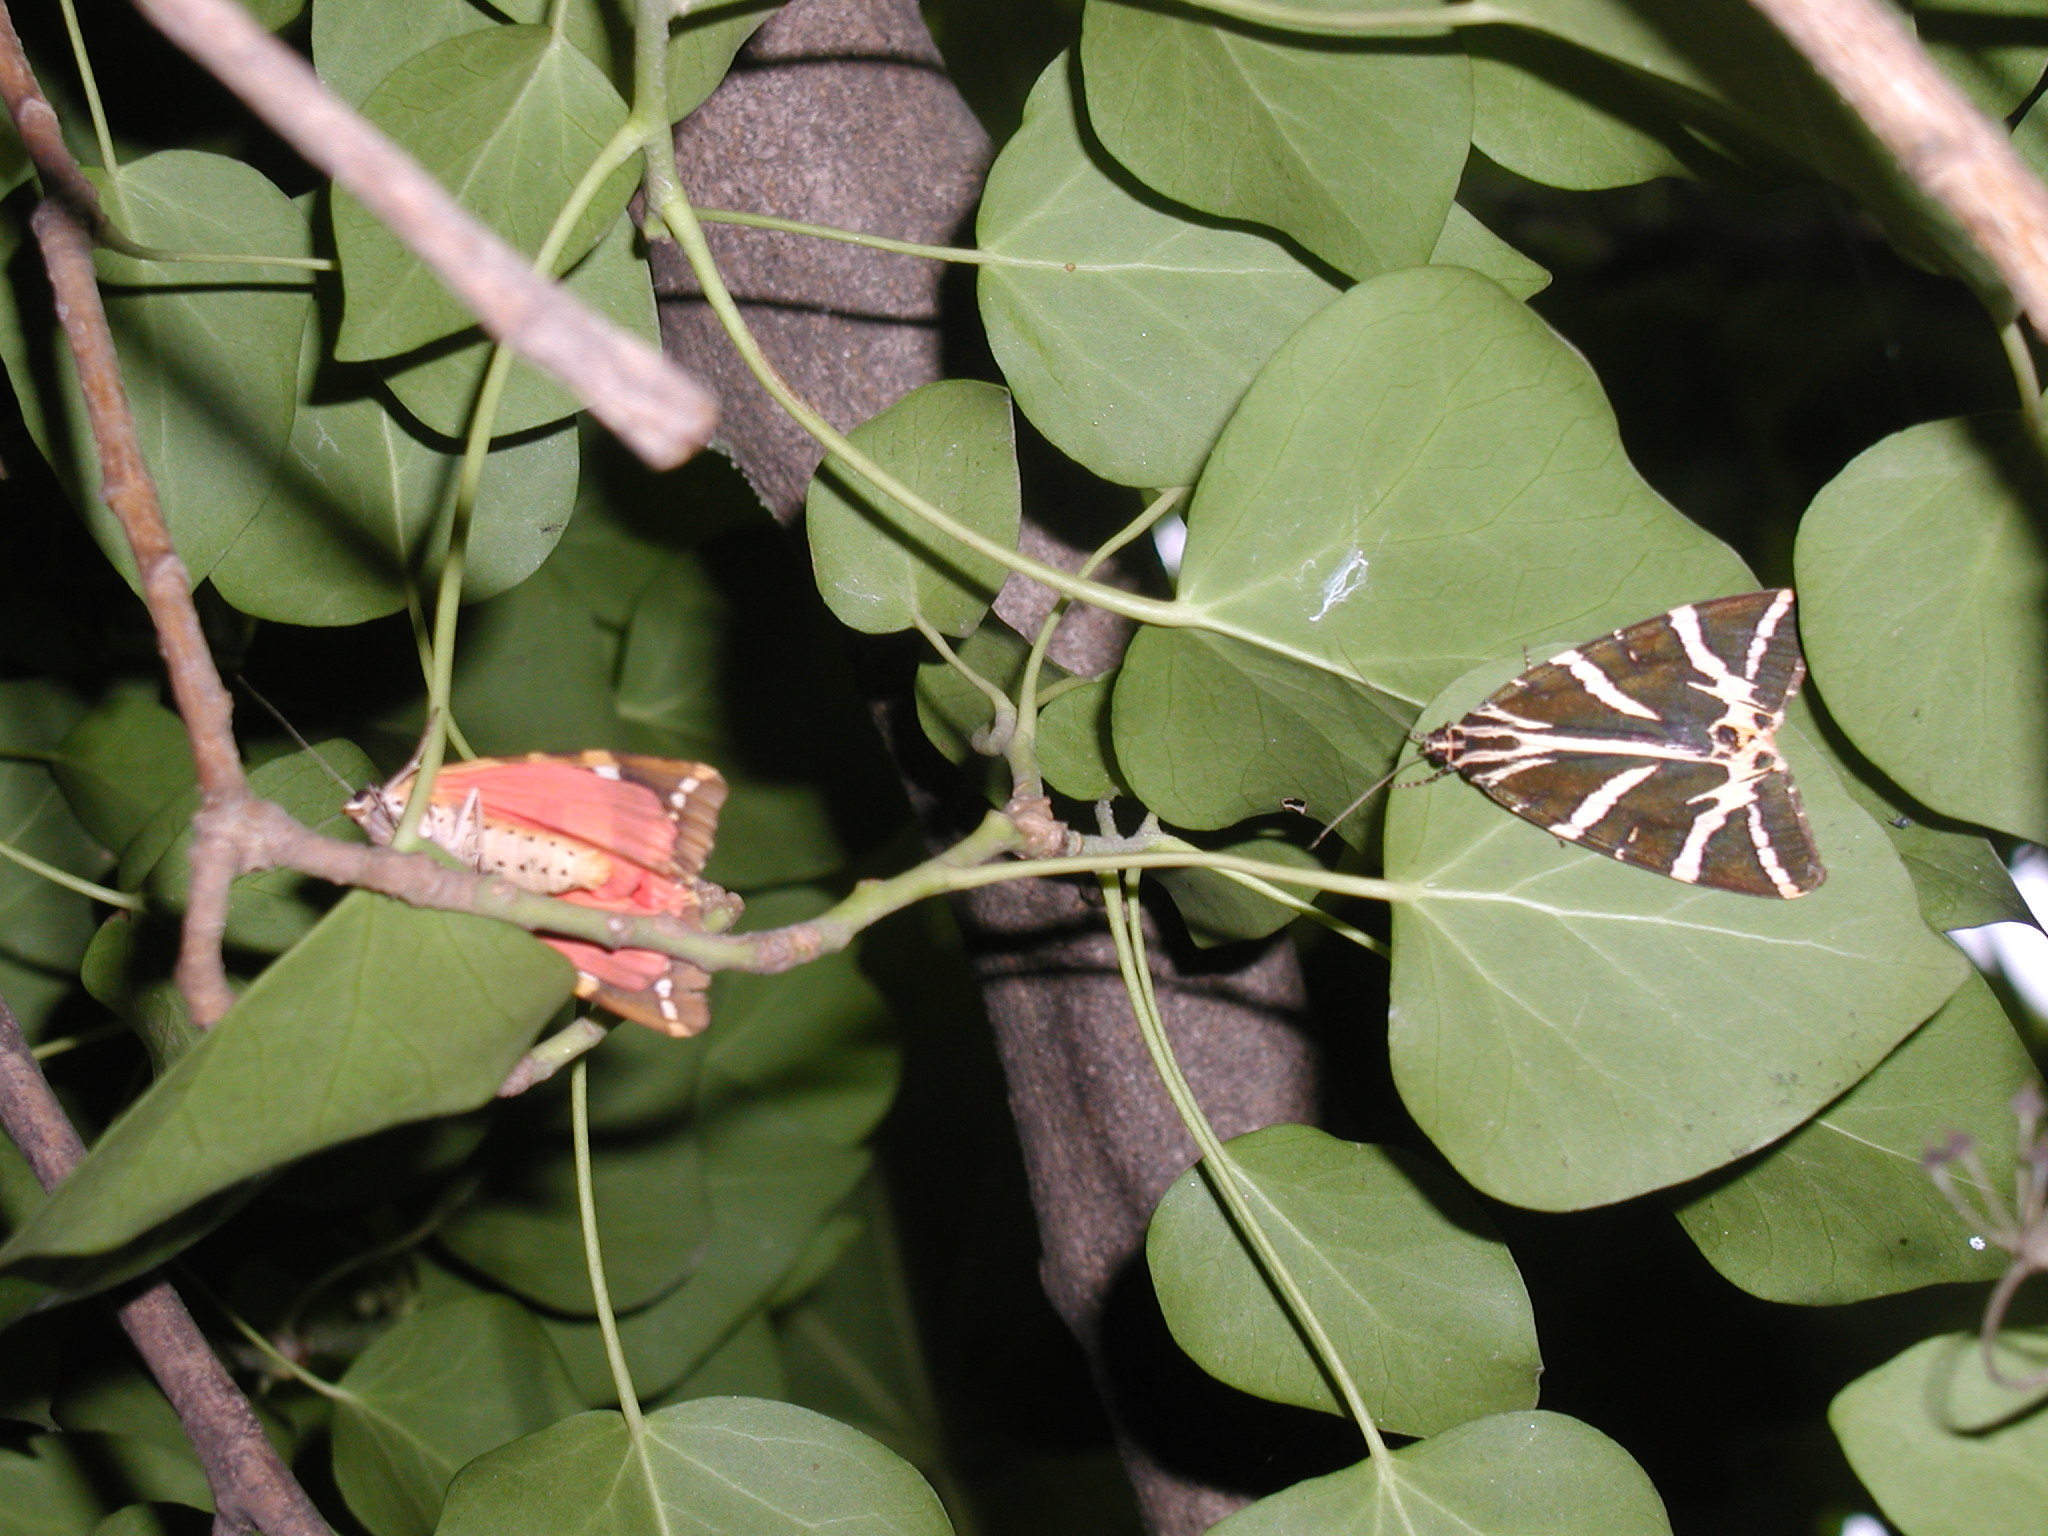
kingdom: Animalia
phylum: Arthropoda
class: Insecta
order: Lepidoptera
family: Erebidae
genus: Euplagia
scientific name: Euplagia quadripunctaria
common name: Jersey tiger
